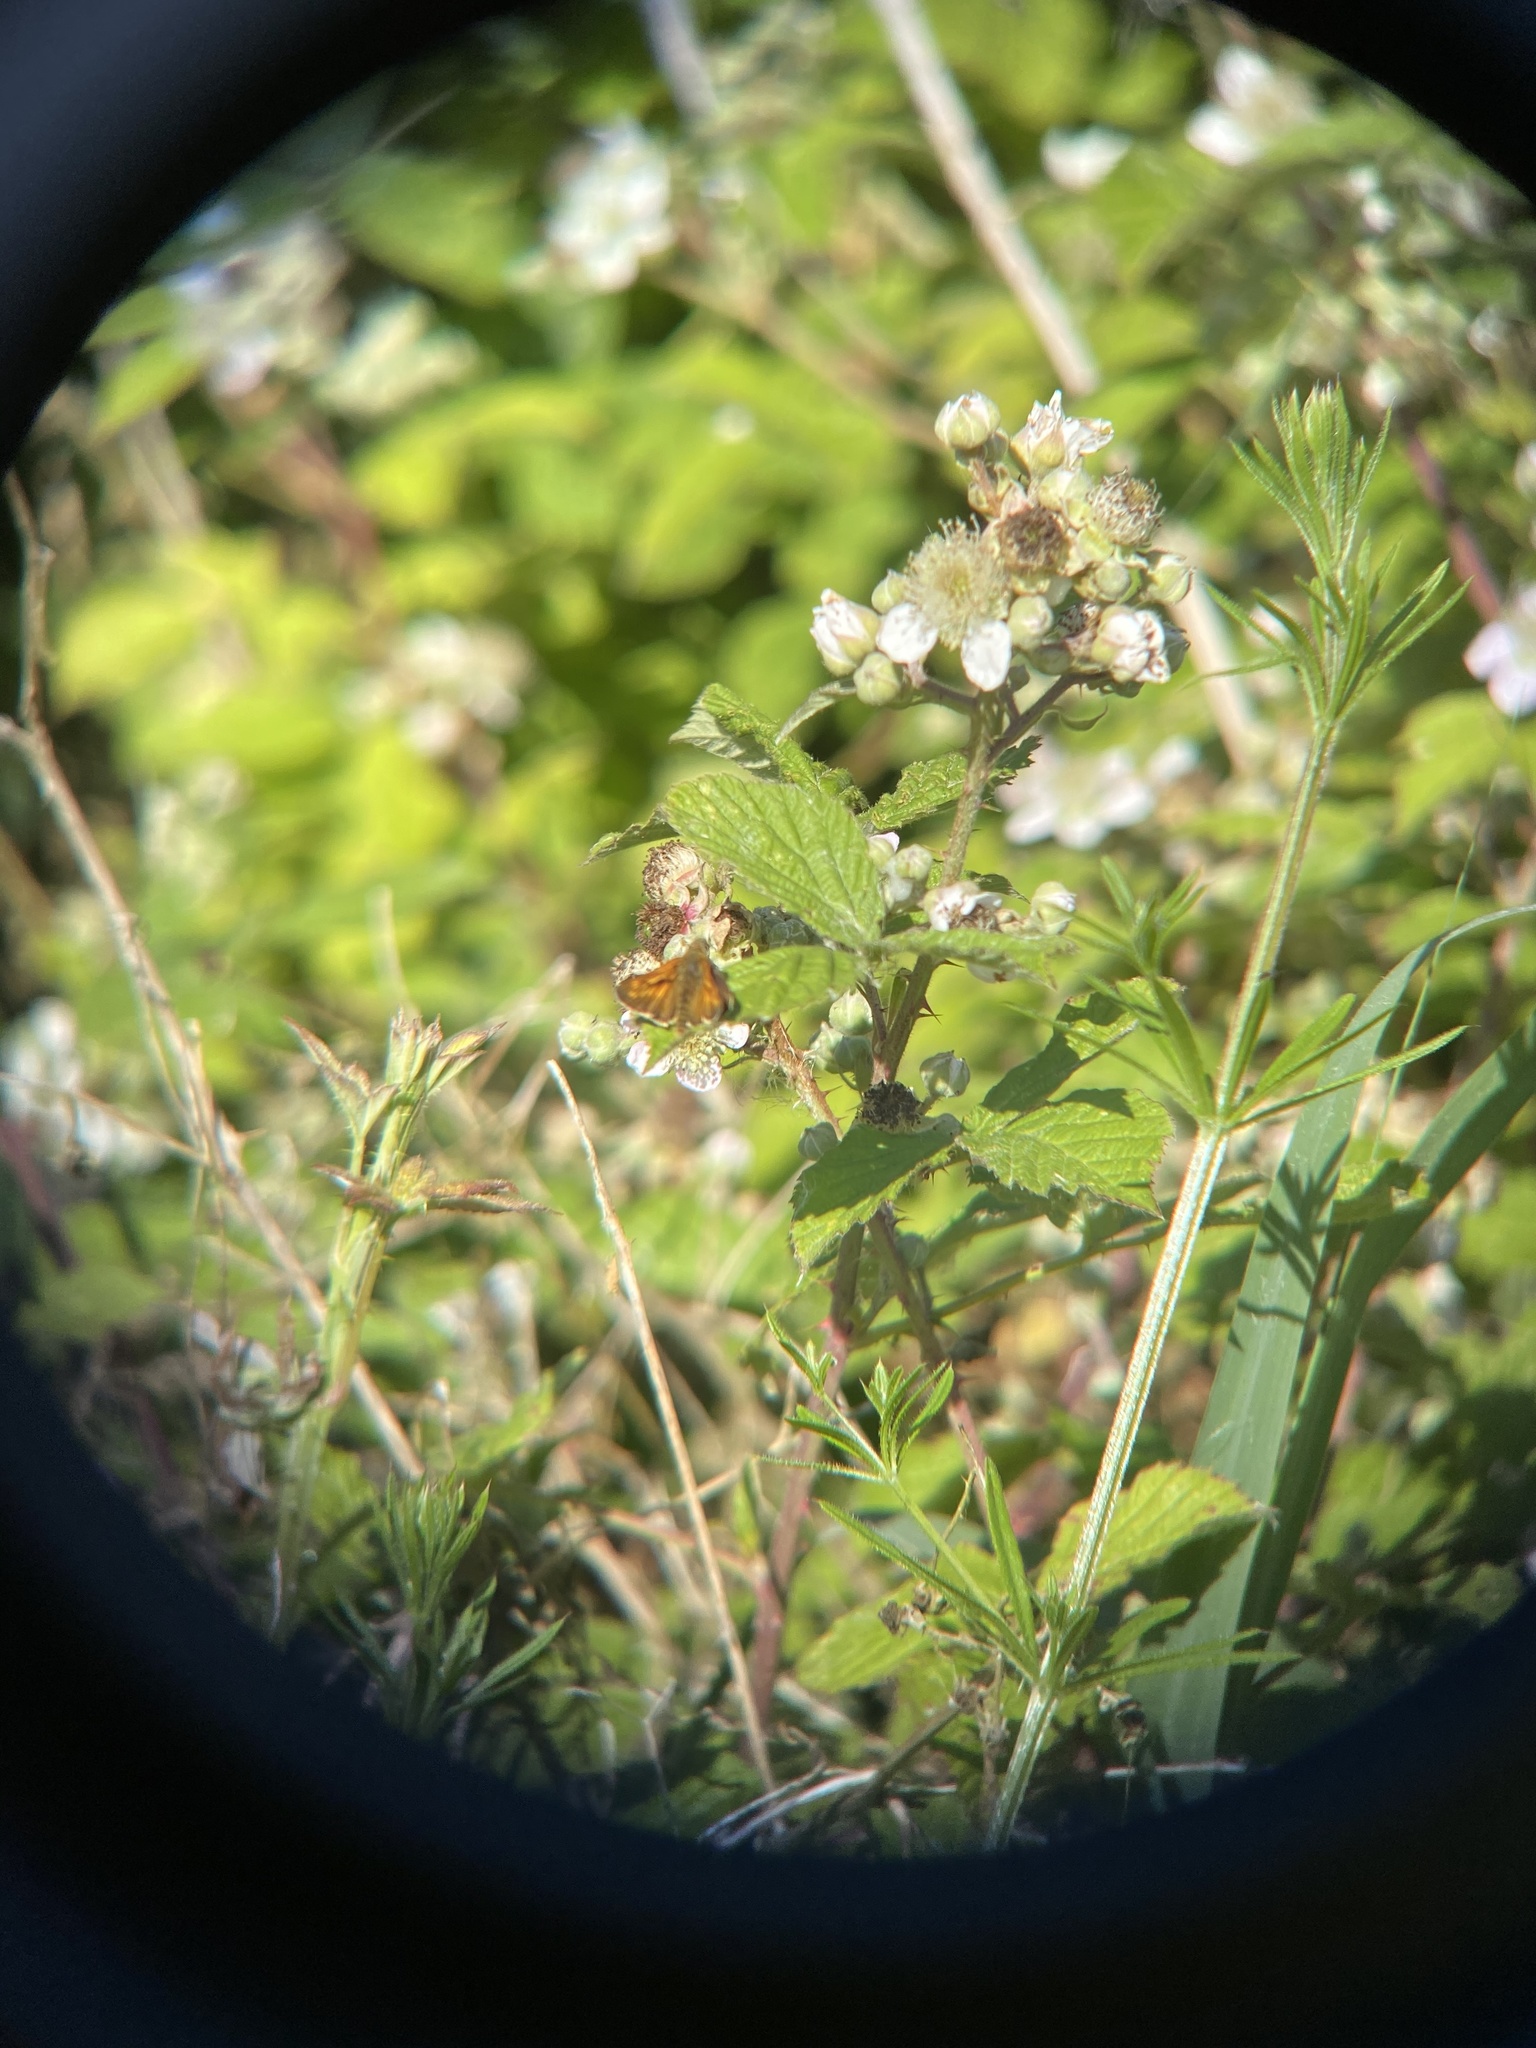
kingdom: Animalia
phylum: Arthropoda
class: Insecta
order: Lepidoptera
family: Hesperiidae
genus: Ochlodes
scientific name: Ochlodes venata
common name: Large skipper
